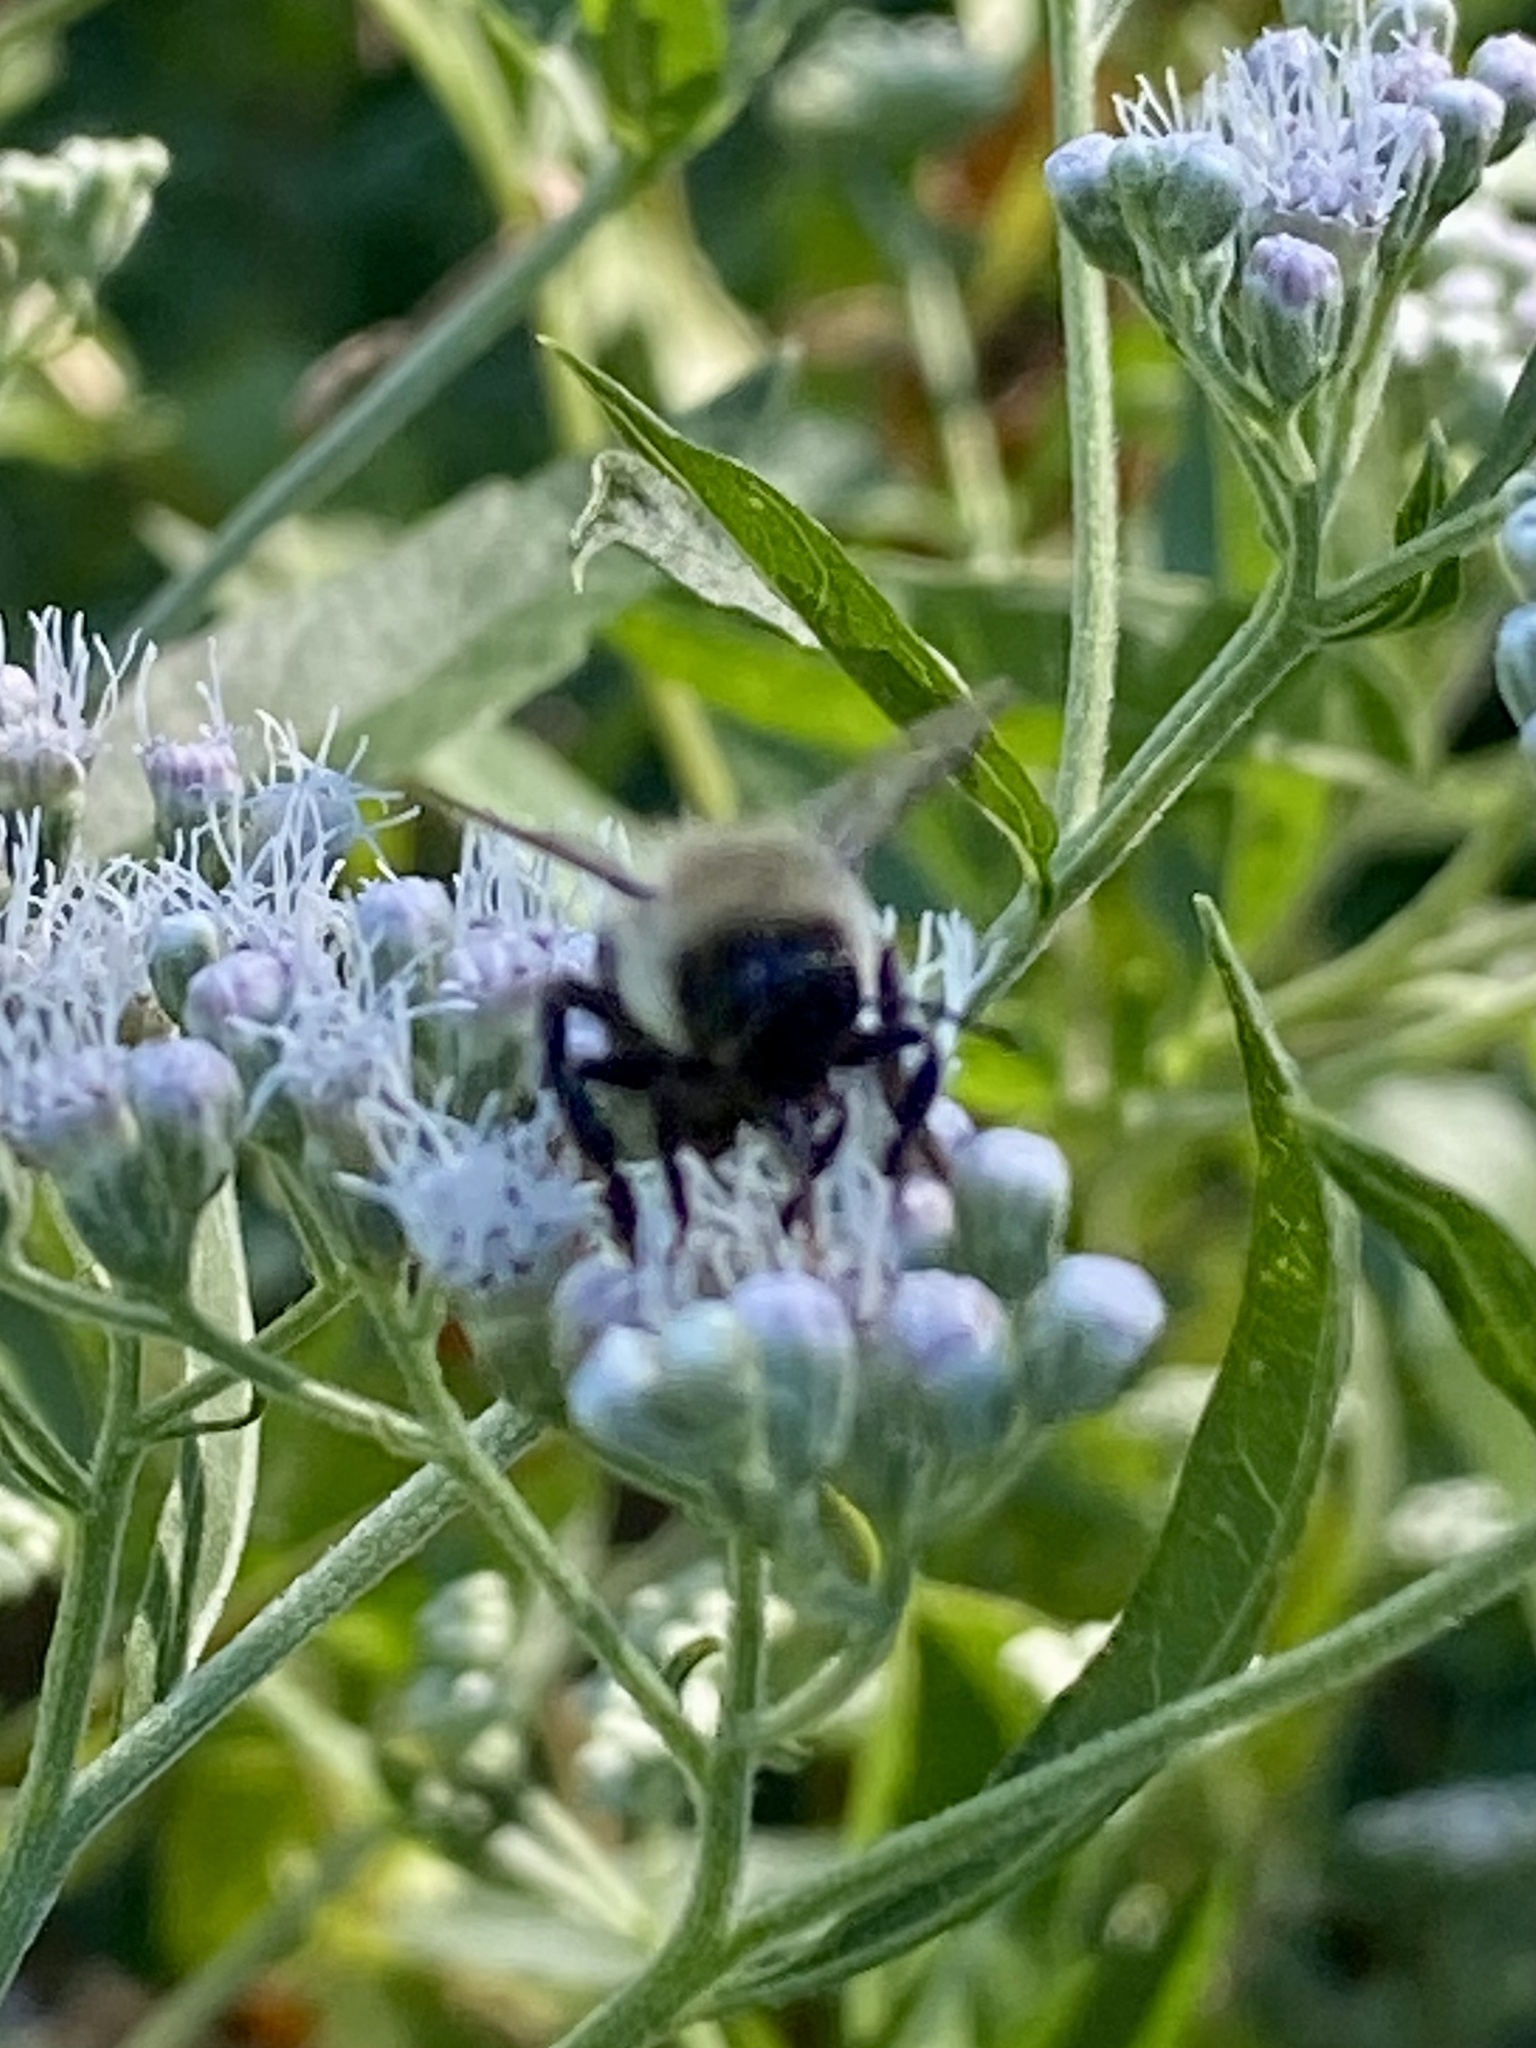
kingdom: Animalia
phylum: Arthropoda
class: Insecta
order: Hymenoptera
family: Apidae
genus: Bombus
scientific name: Bombus impatiens
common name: Common eastern bumble bee
